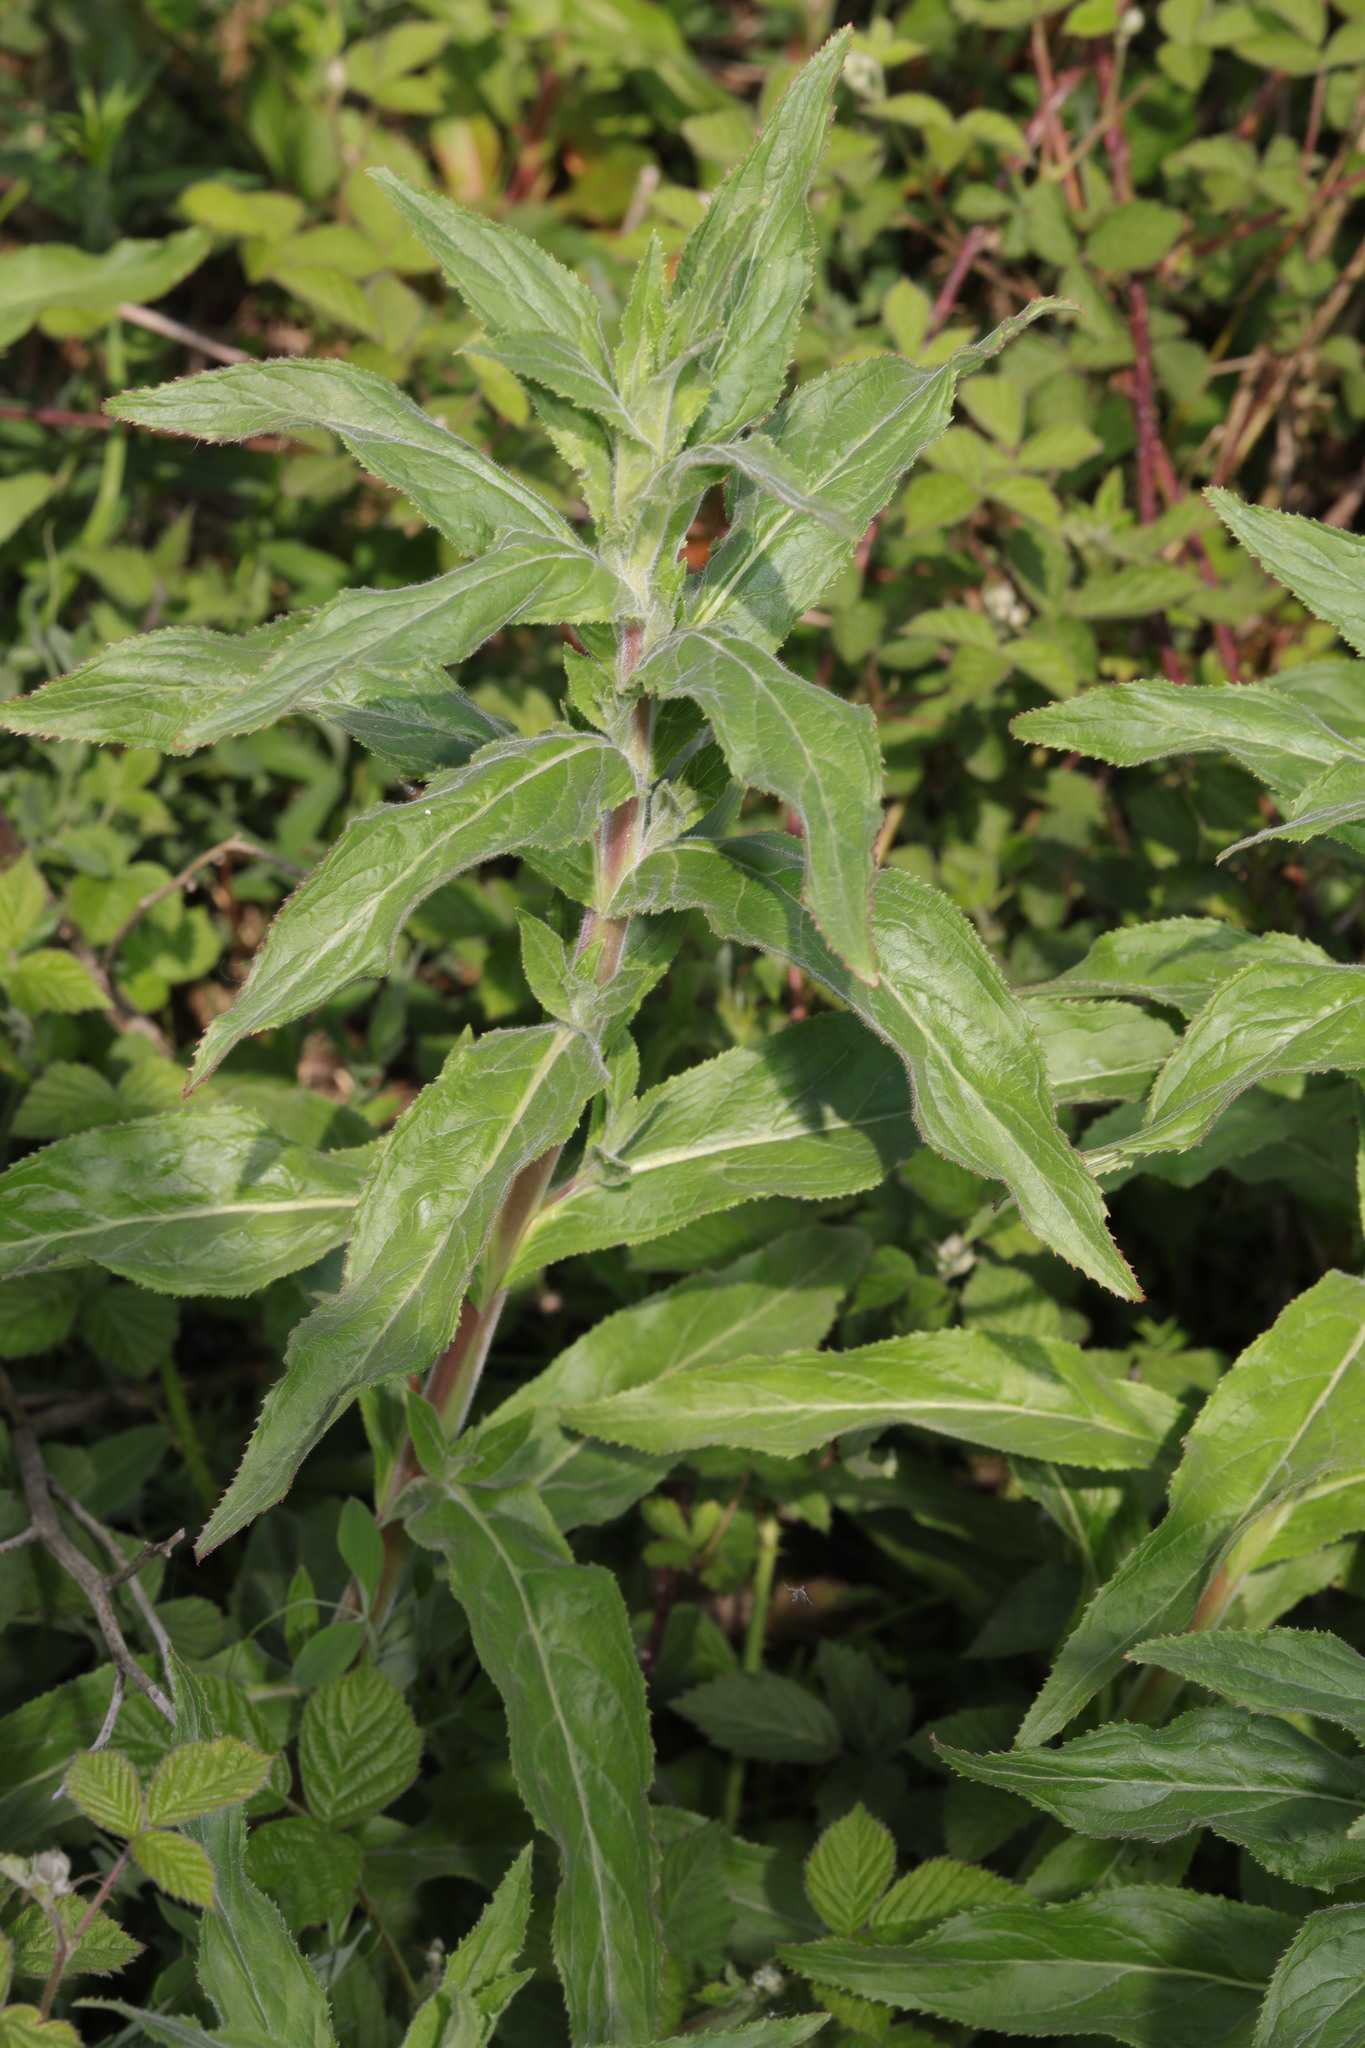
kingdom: Plantae
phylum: Tracheophyta
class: Magnoliopsida
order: Myrtales
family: Onagraceae
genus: Epilobium
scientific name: Epilobium hirsutum
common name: Great willowherb
